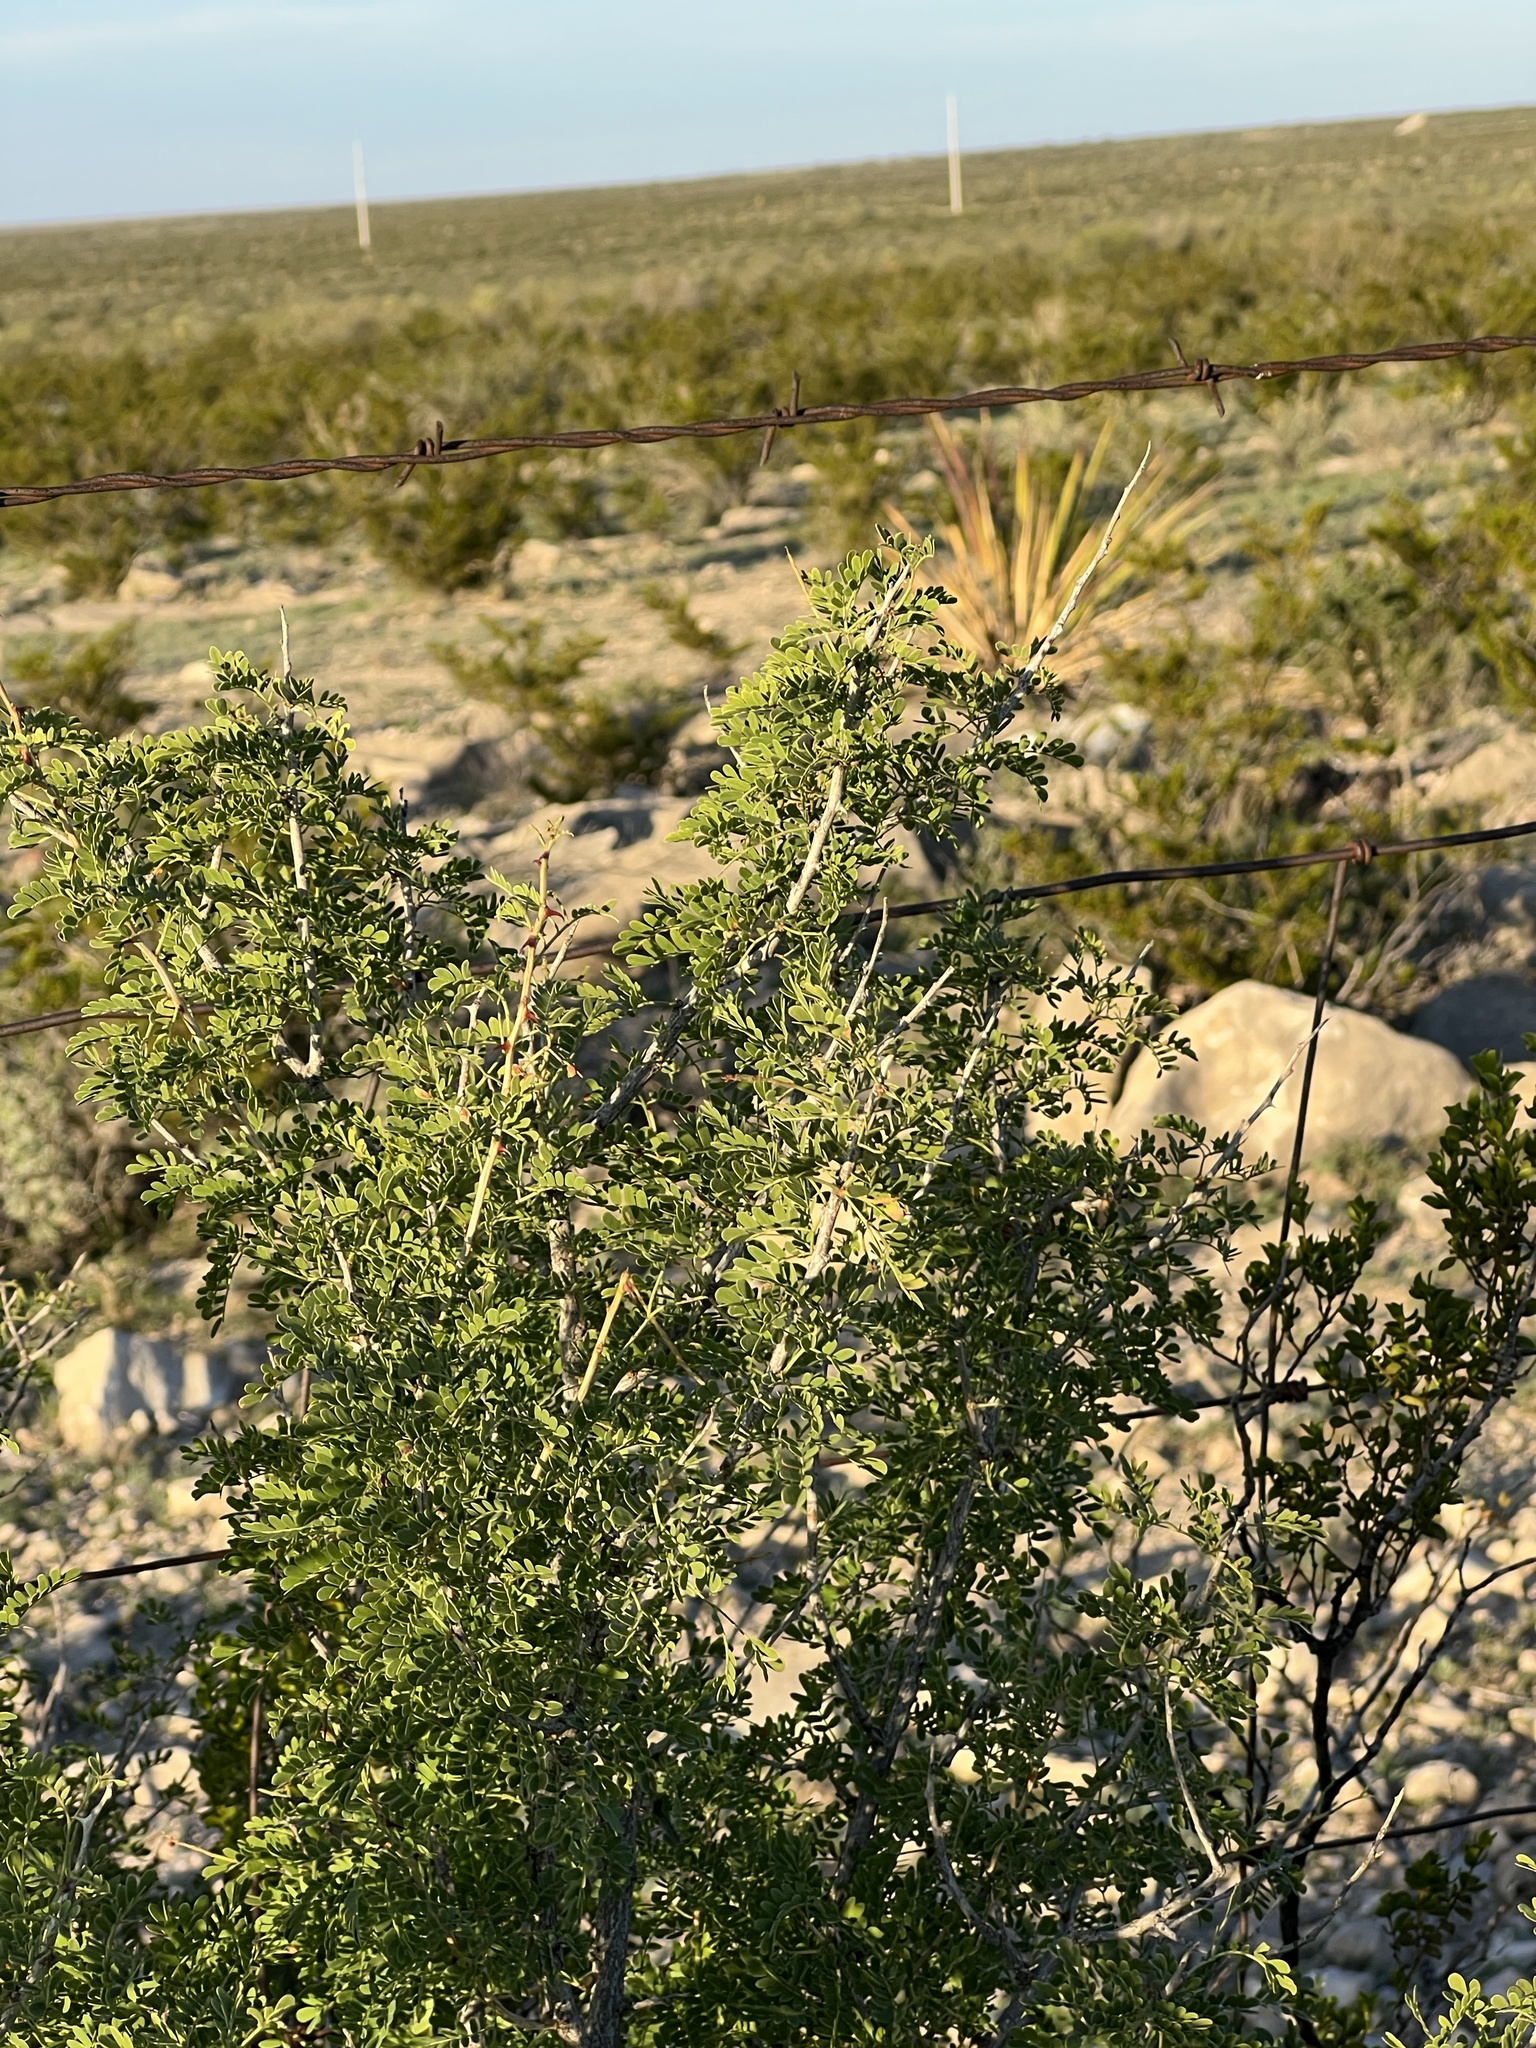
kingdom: Plantae
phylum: Tracheophyta
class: Magnoliopsida
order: Zygophyllales
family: Zygophyllaceae
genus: Larrea
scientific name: Larrea tridentata
